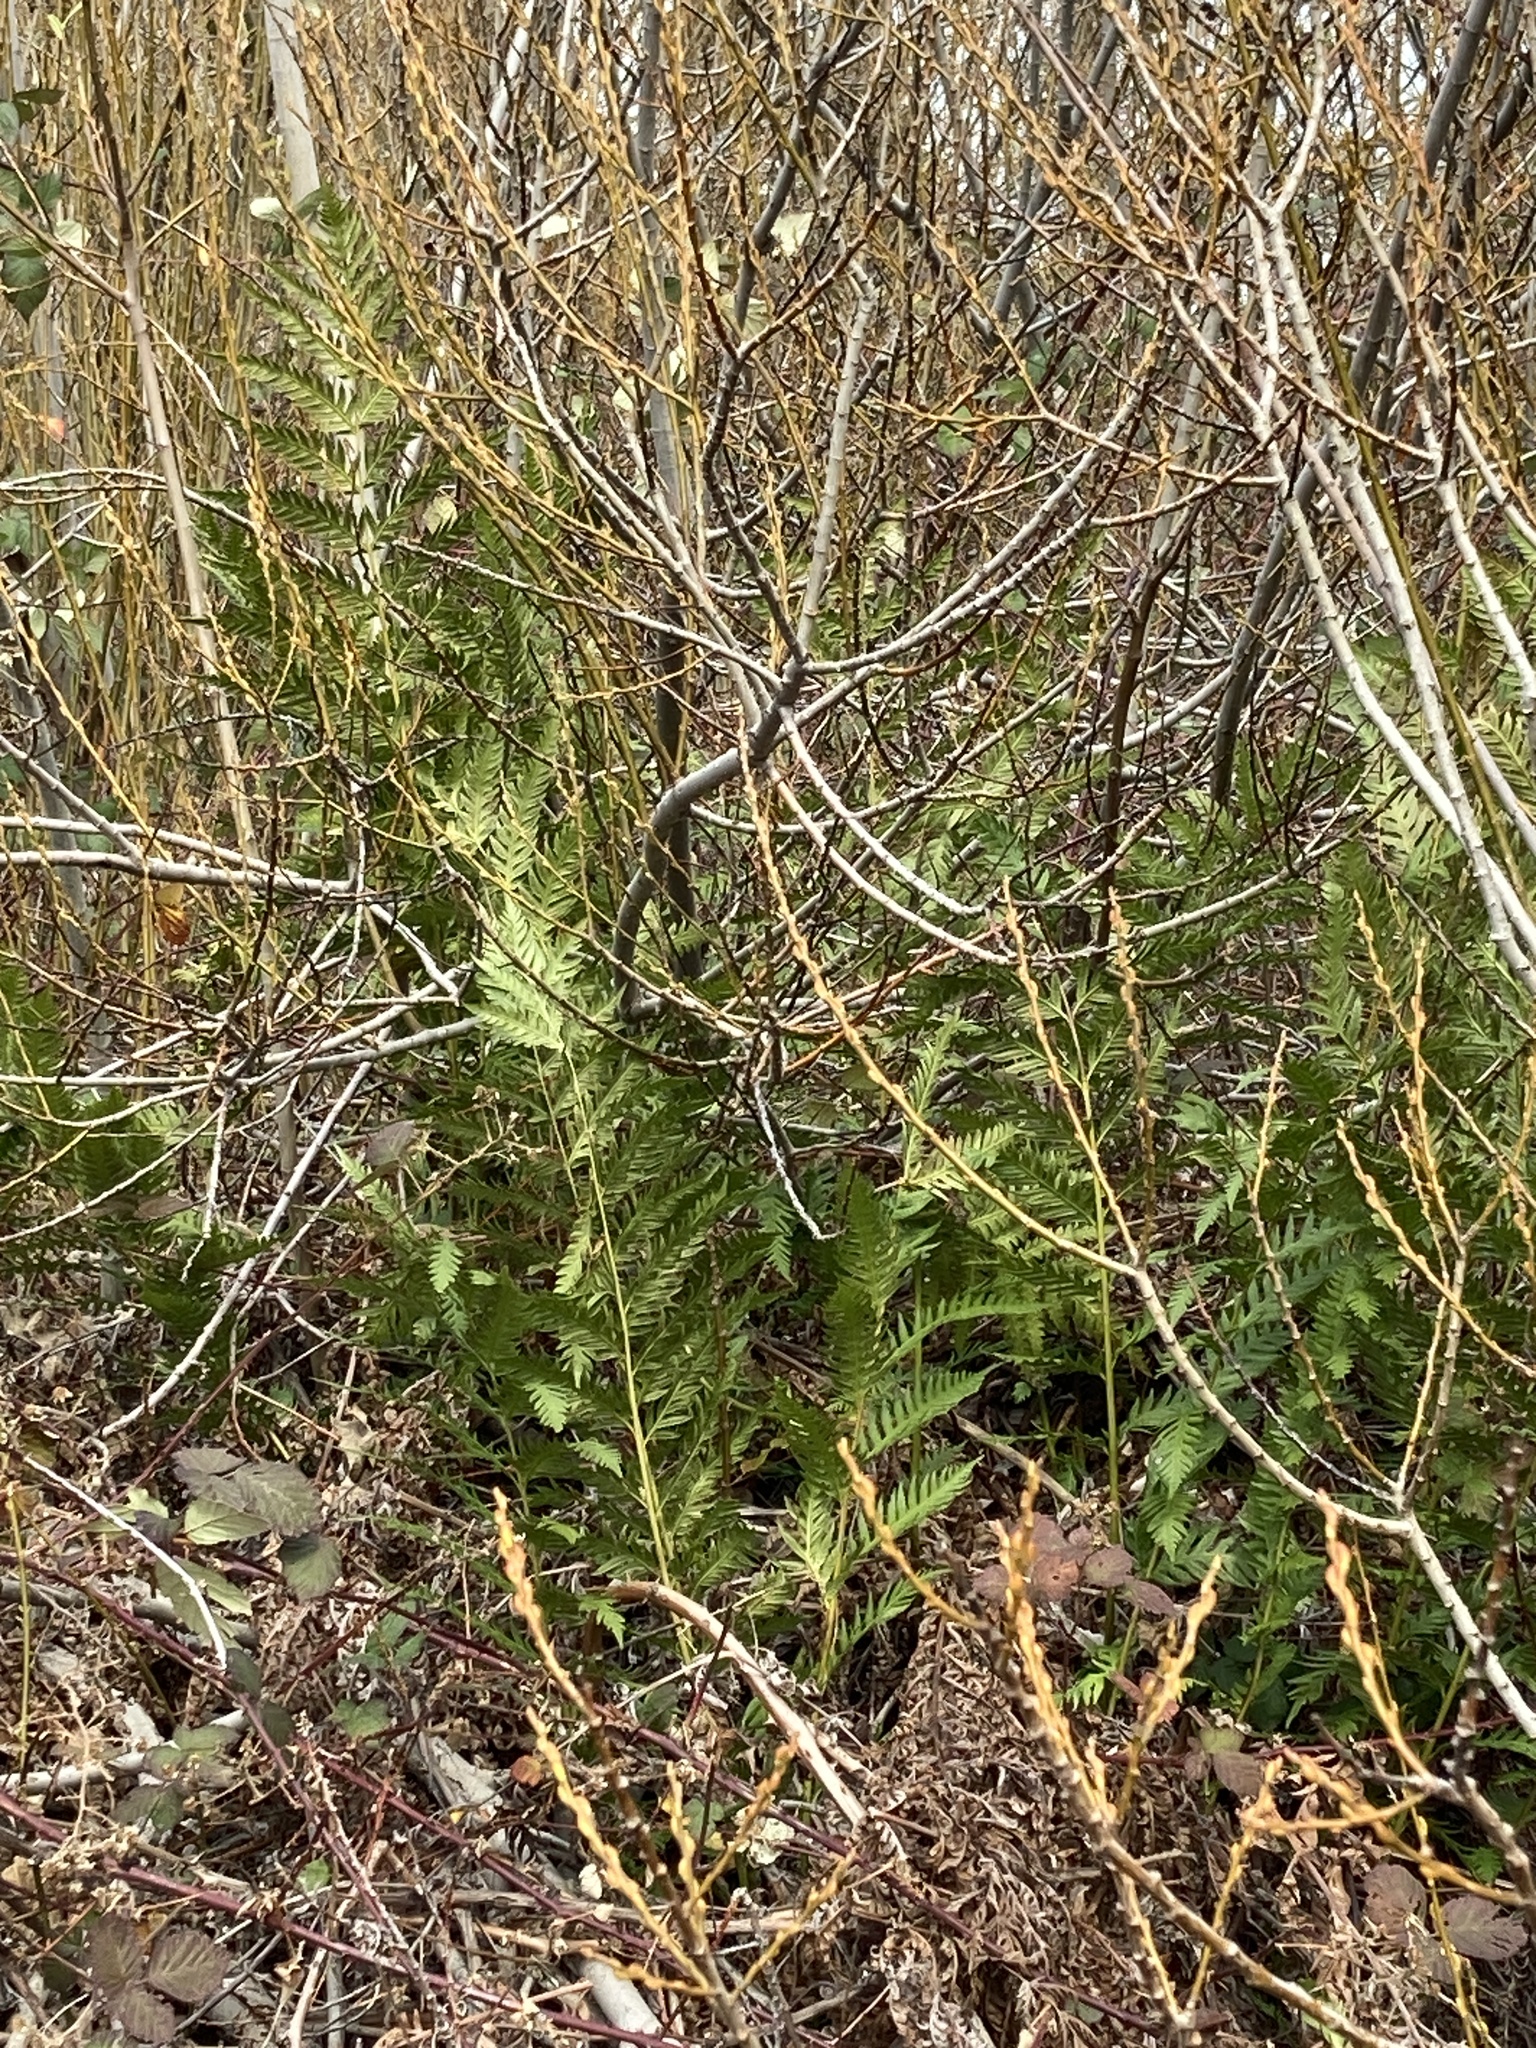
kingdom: Plantae
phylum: Tracheophyta
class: Polypodiopsida
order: Polypodiales
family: Blechnaceae
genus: Woodwardia
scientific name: Woodwardia fimbriata
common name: Giant chain fern
